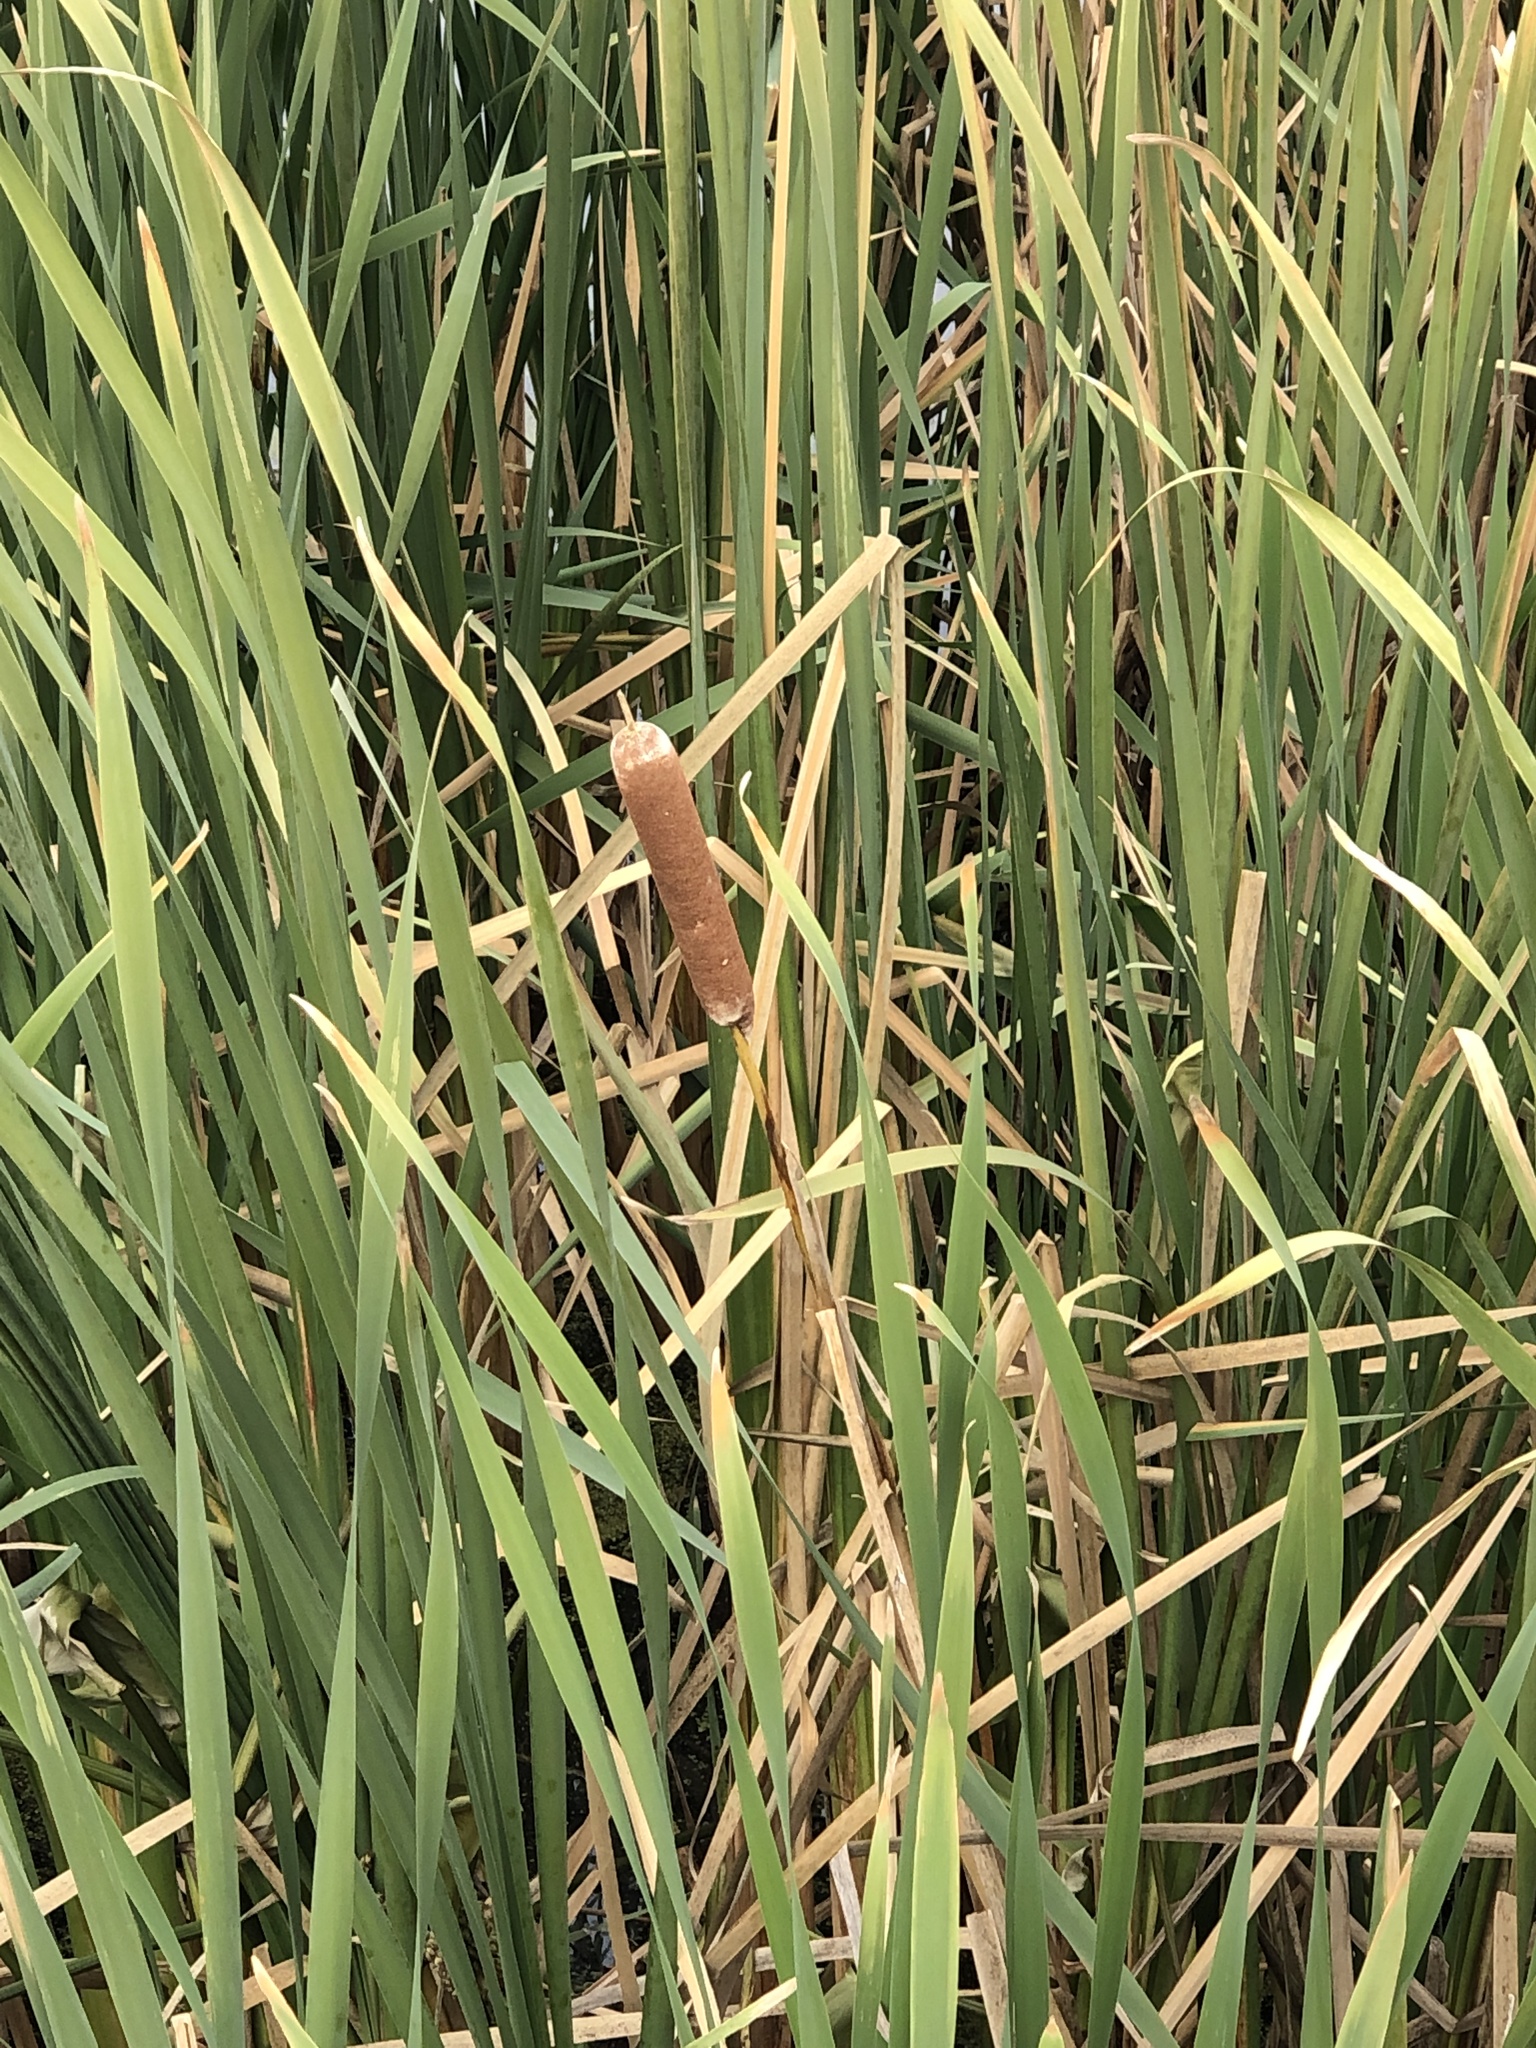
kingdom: Plantae
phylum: Tracheophyta
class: Liliopsida
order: Poales
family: Typhaceae
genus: Typha
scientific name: Typha
